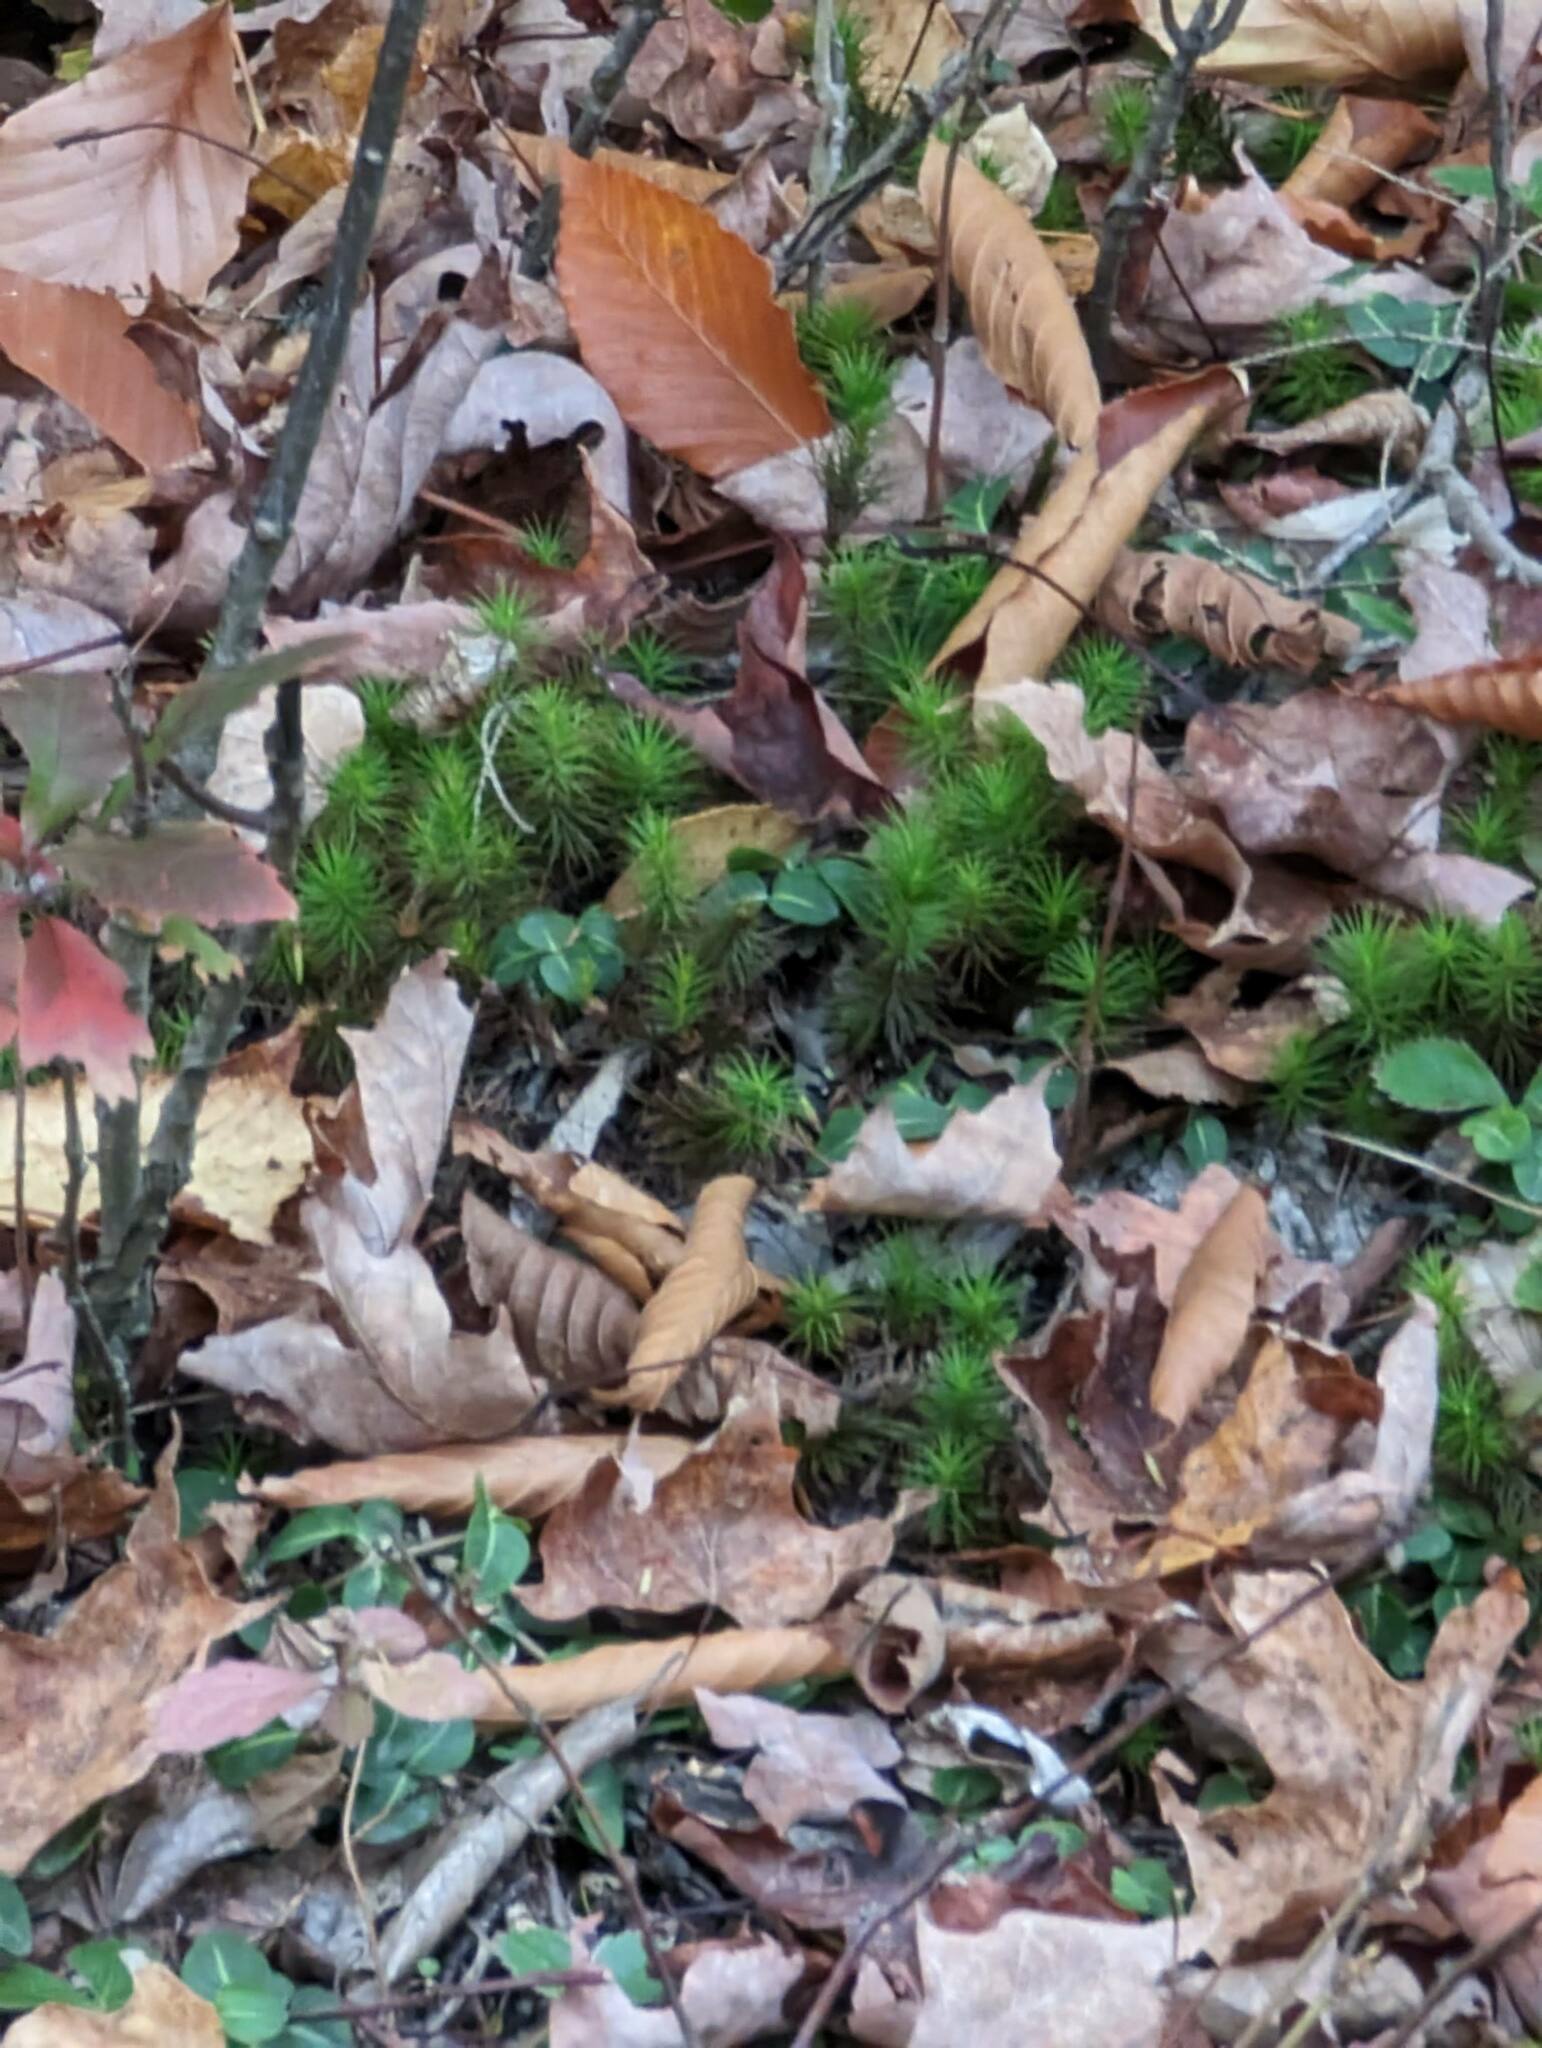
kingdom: Plantae
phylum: Tracheophyta
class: Magnoliopsida
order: Gentianales
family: Rubiaceae
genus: Mitchella
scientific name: Mitchella repens
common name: Partridge-berry
